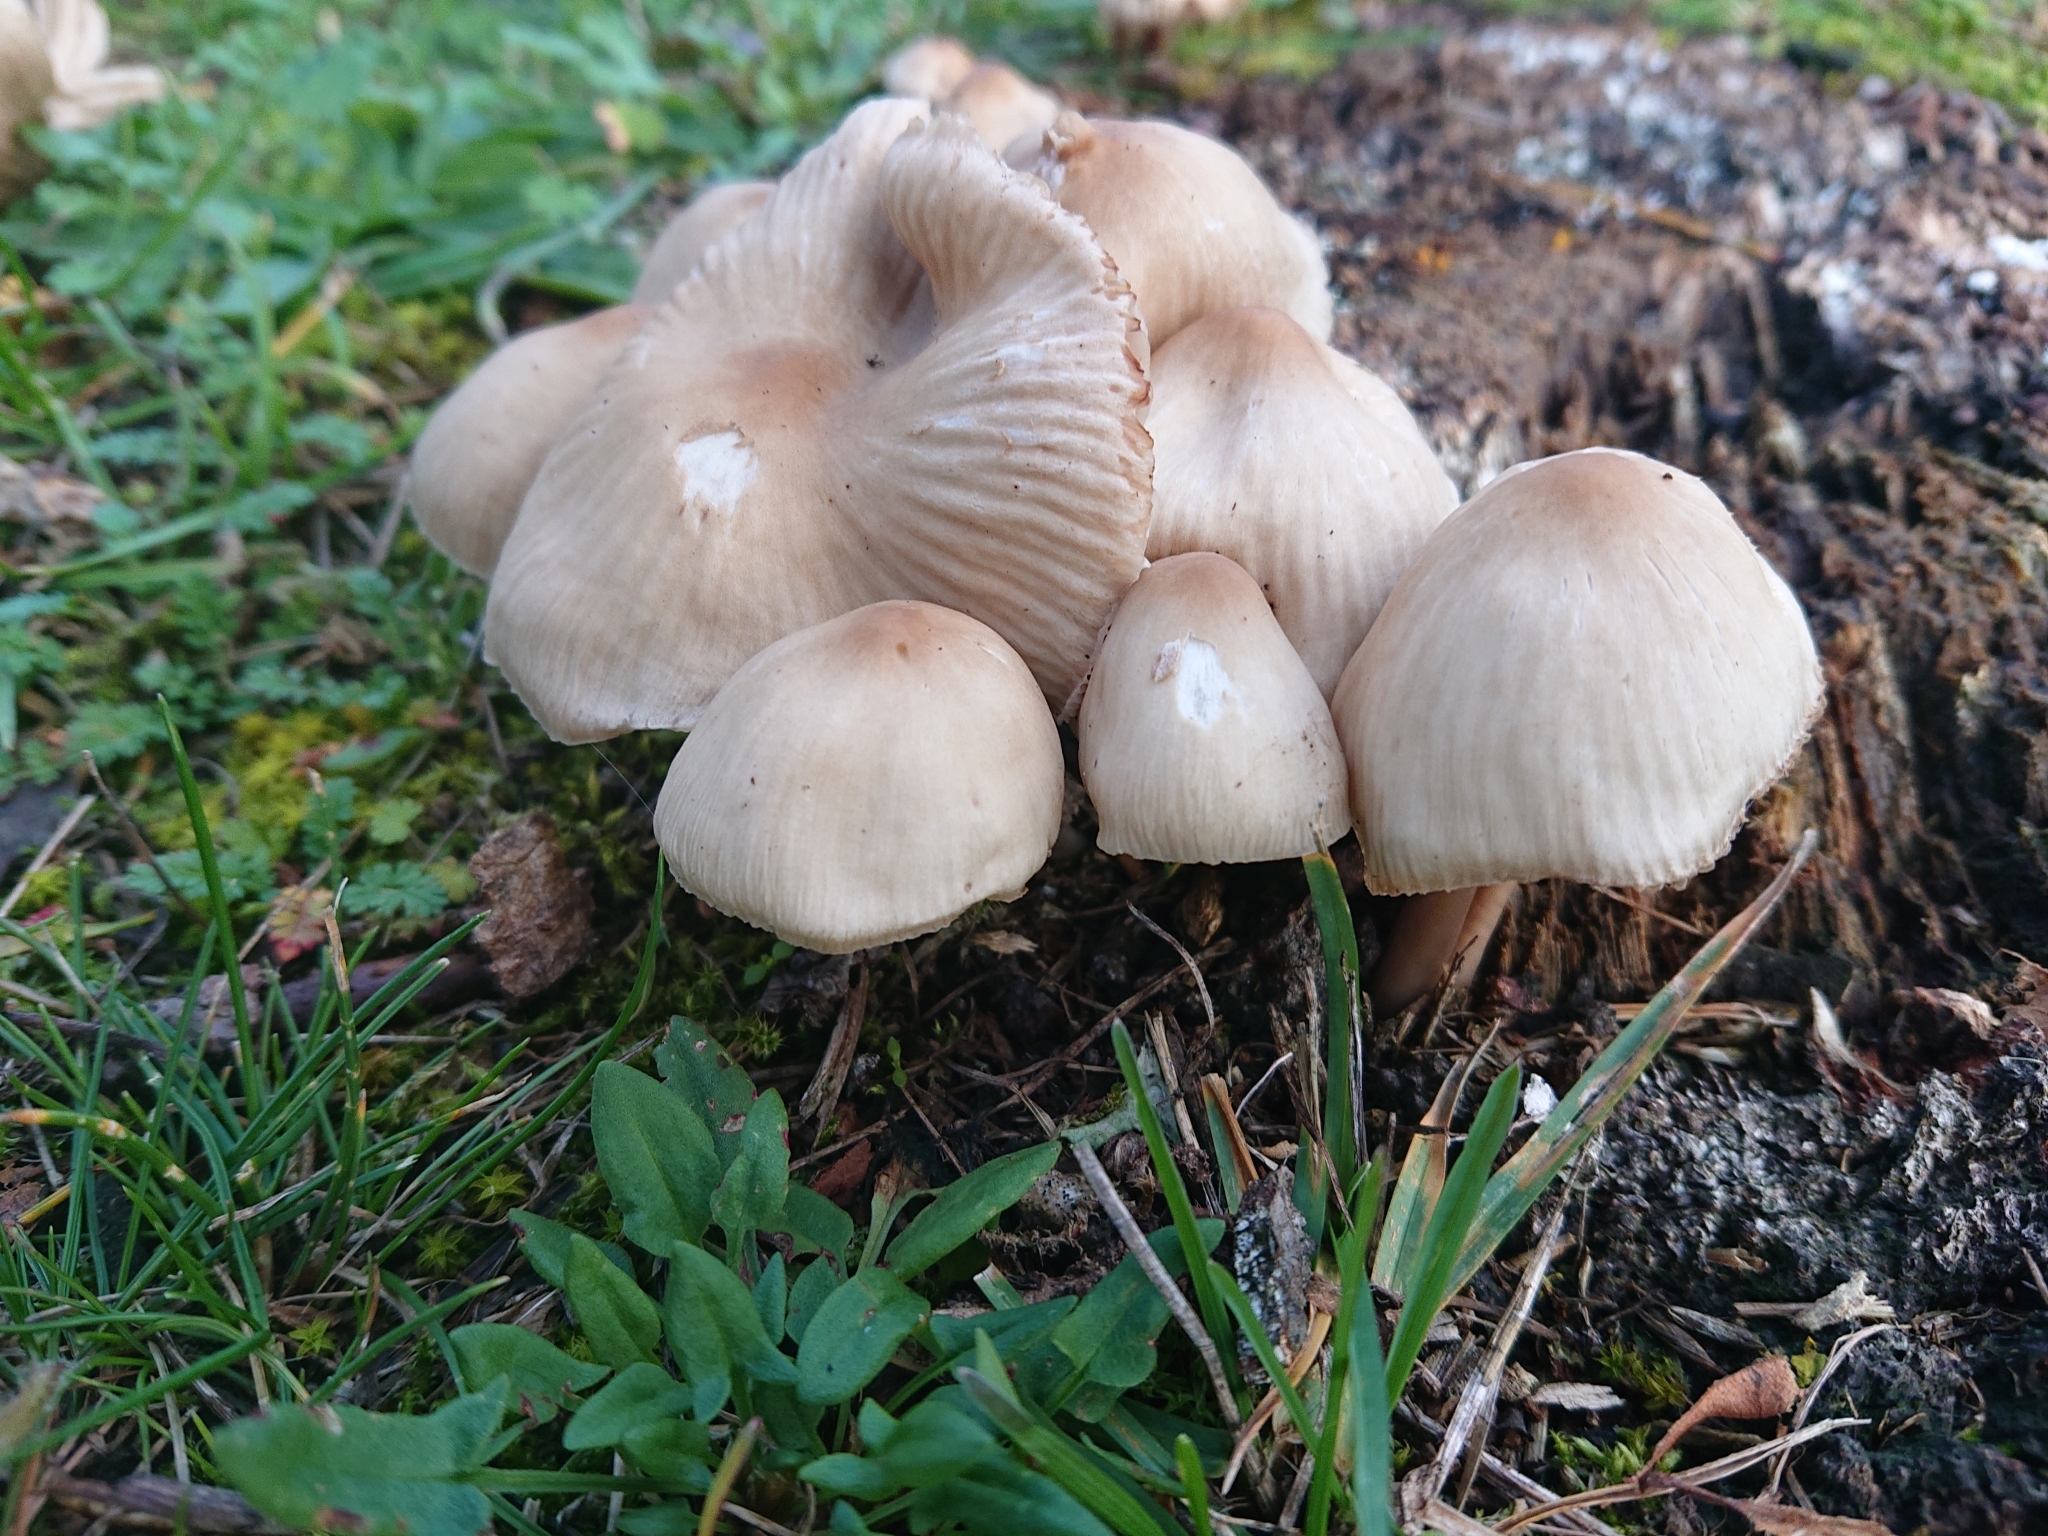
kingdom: Fungi
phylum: Basidiomycota
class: Agaricomycetes
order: Agaricales
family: Mycenaceae
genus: Mycena
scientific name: Mycena galericulata
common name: Bonnet mycena
